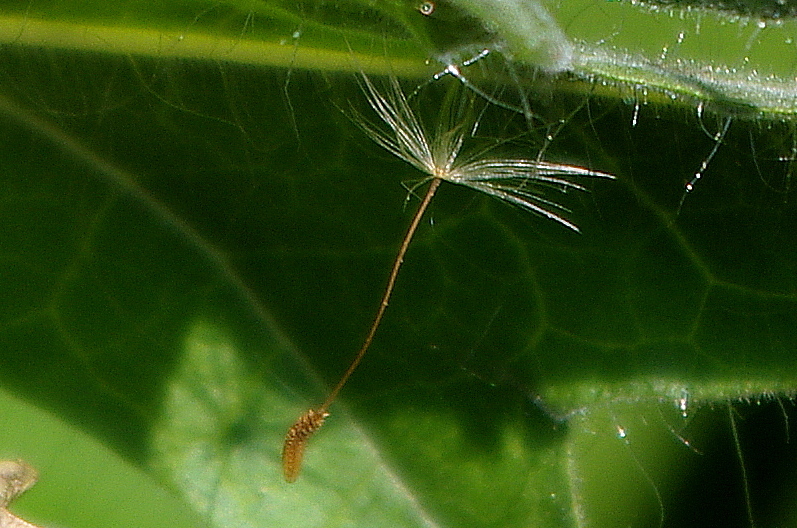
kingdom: Plantae
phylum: Tracheophyta
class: Magnoliopsida
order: Asterales
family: Asteraceae
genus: Taraxacum
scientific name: Taraxacum officinale
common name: Common dandelion
